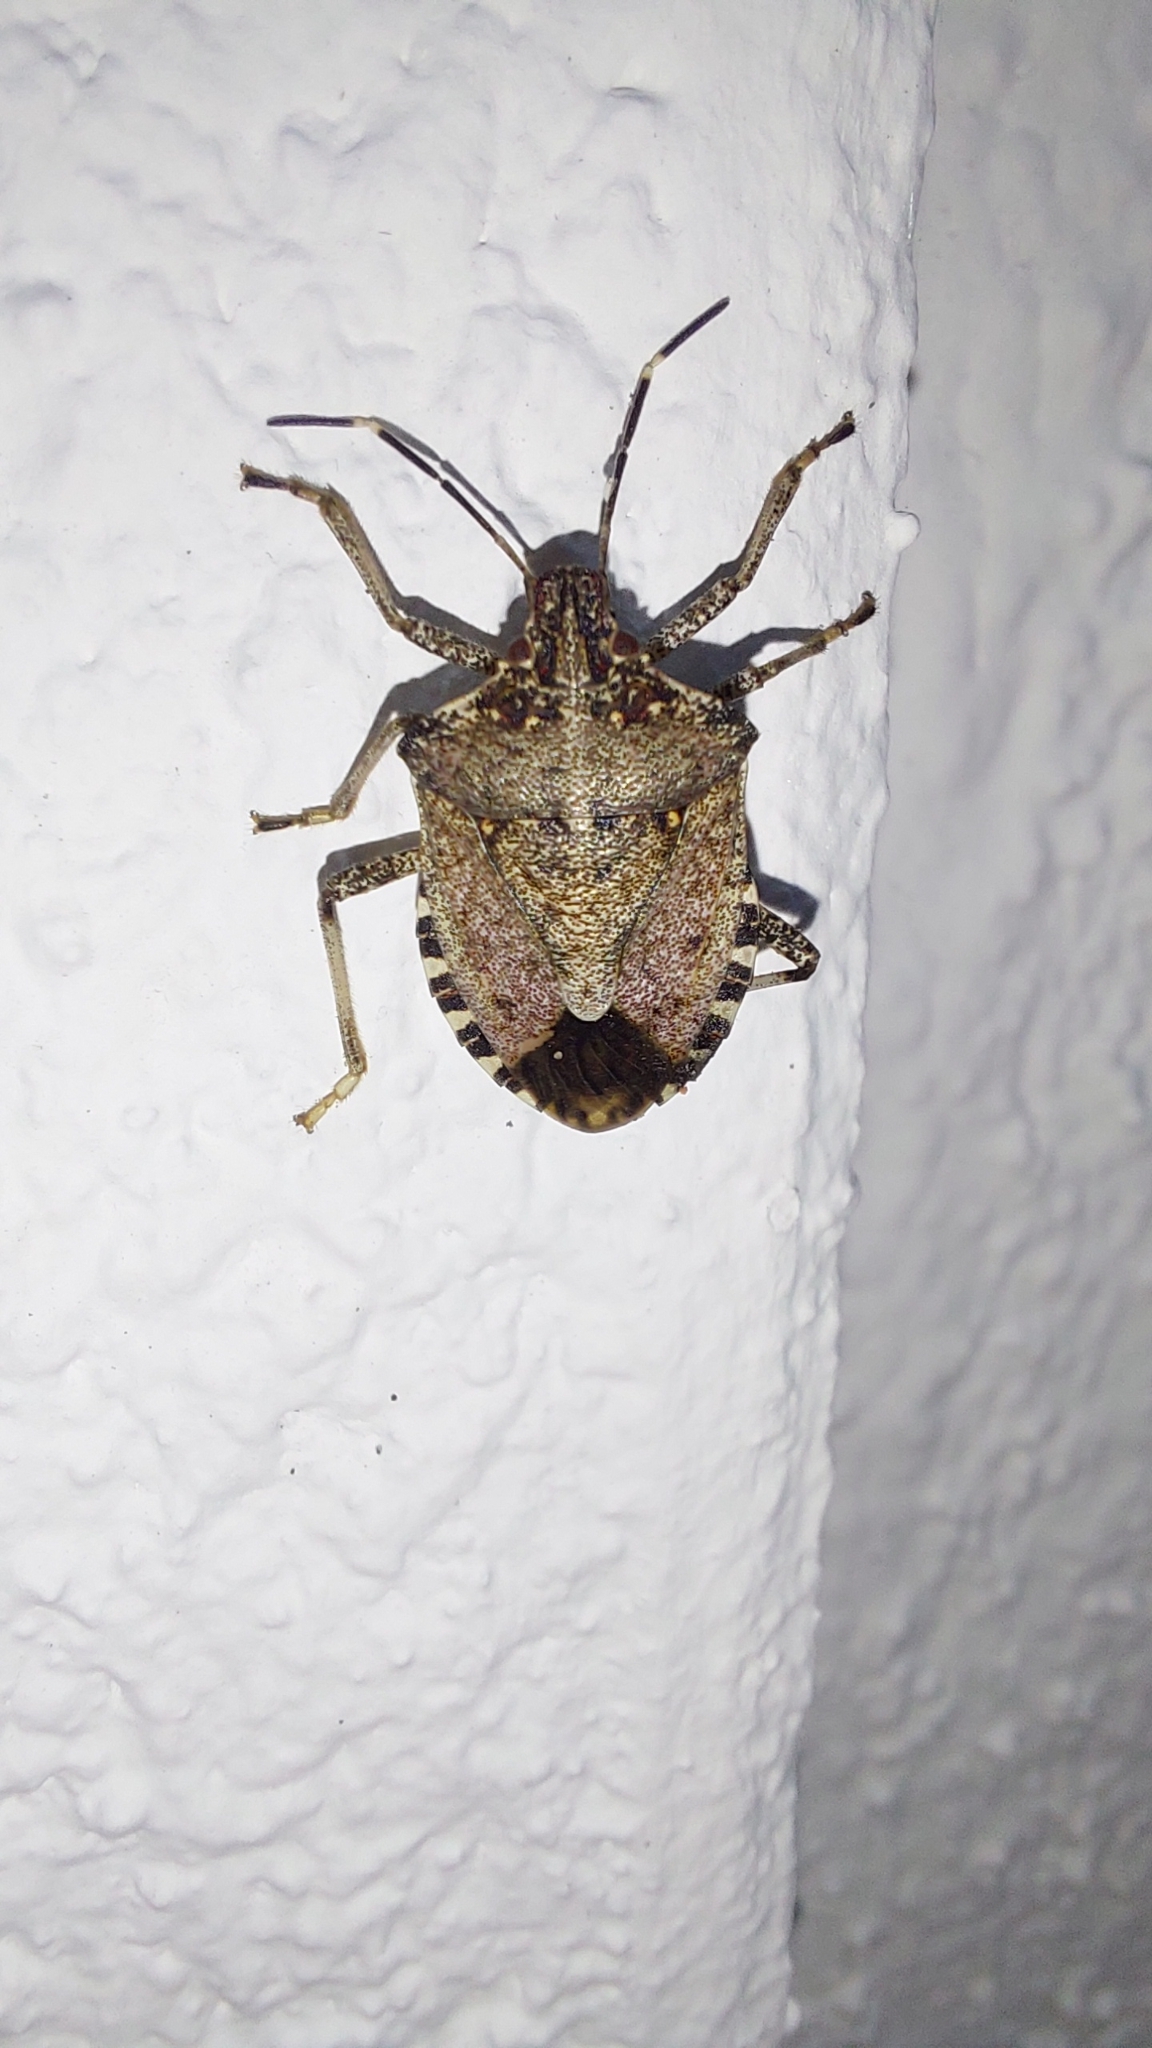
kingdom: Animalia
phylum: Arthropoda
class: Insecta
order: Hemiptera
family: Pentatomidae
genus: Halyomorpha
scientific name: Halyomorpha halys
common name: Brown marmorated stink bug
